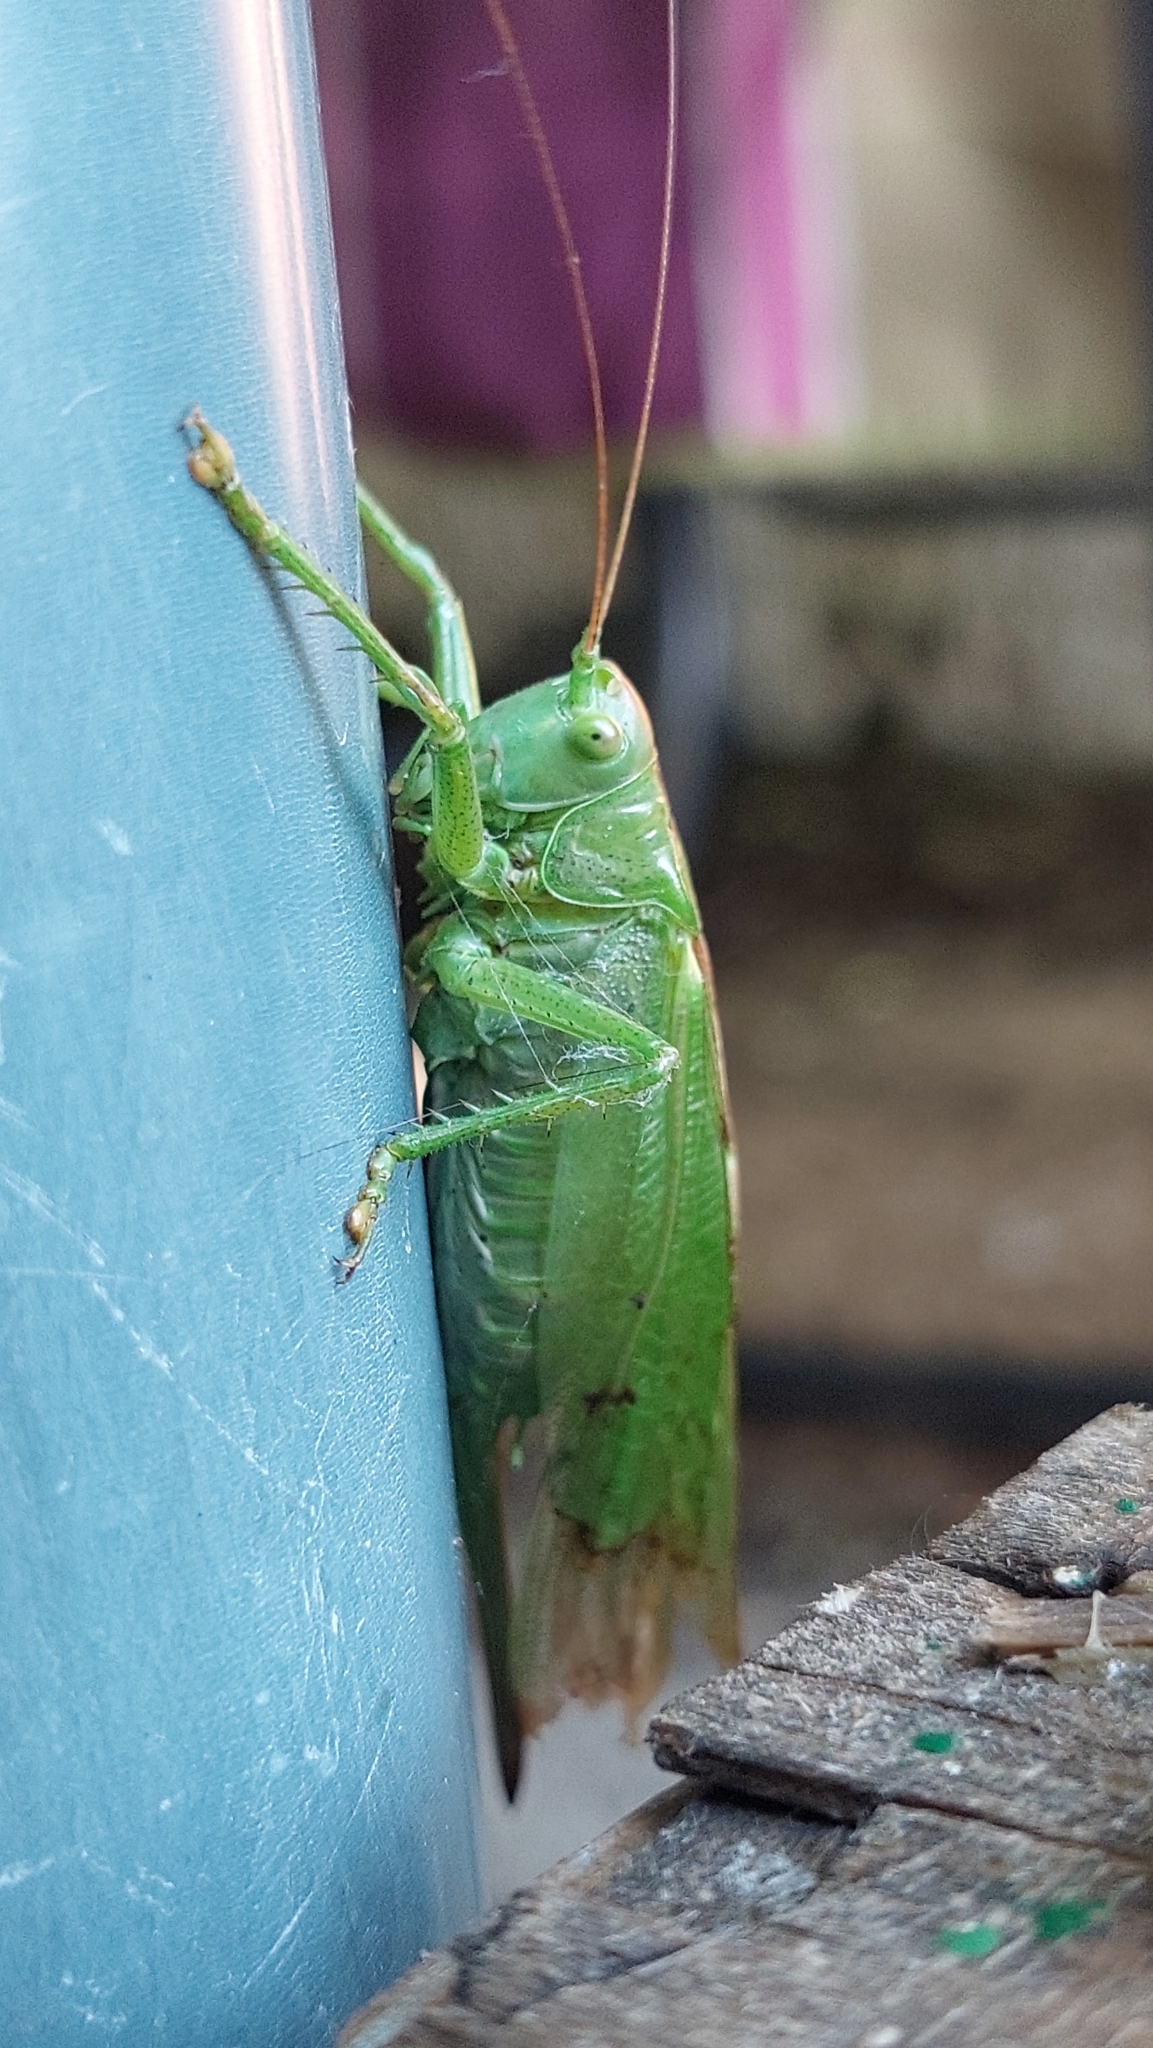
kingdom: Animalia
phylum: Arthropoda
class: Insecta
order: Orthoptera
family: Tettigoniidae
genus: Tettigonia
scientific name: Tettigonia viridissima
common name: Great green bush-cricket
